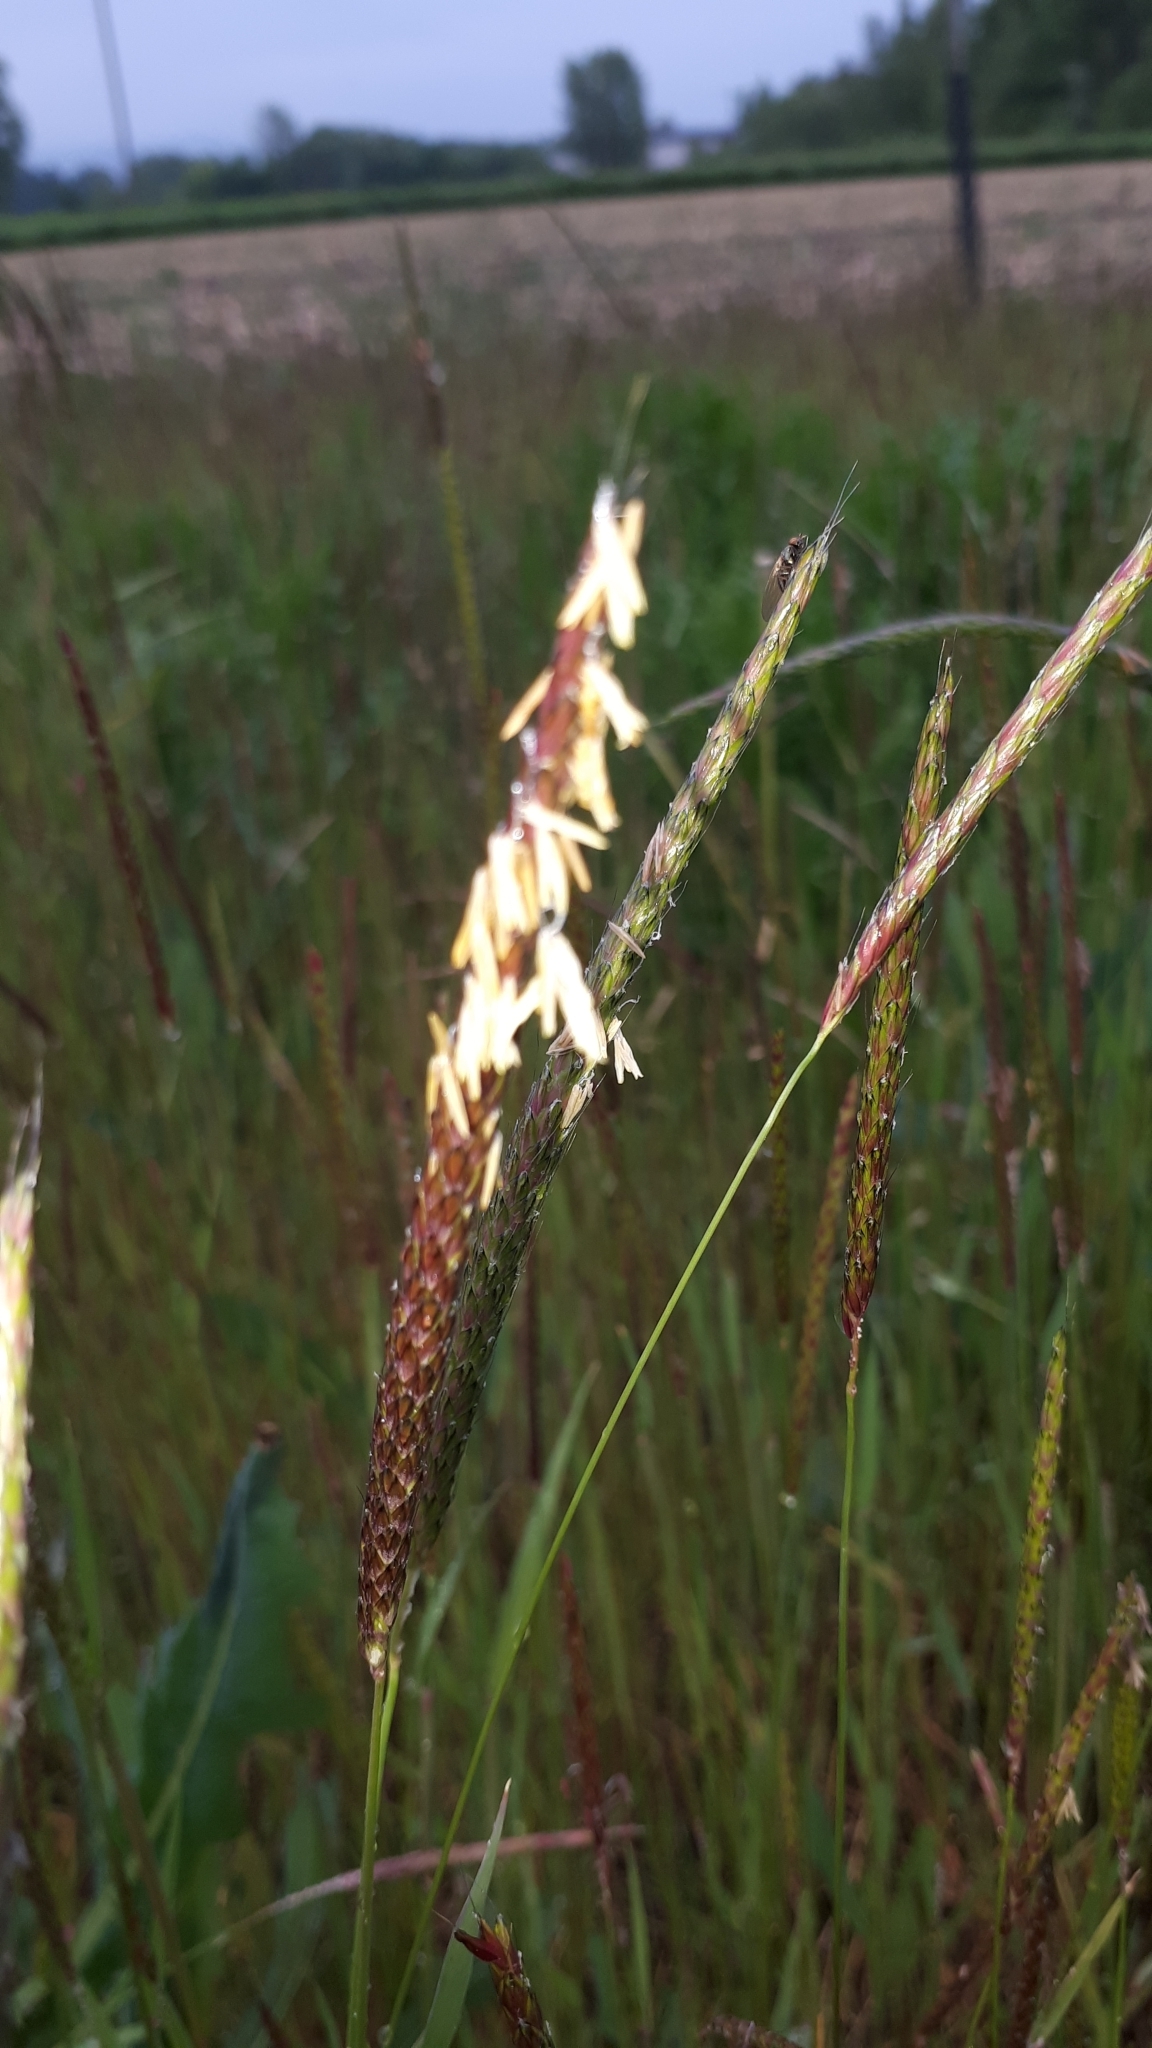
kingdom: Plantae
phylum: Tracheophyta
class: Liliopsida
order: Poales
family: Poaceae
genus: Alopecurus
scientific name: Alopecurus myosuroides
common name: Black-grass
